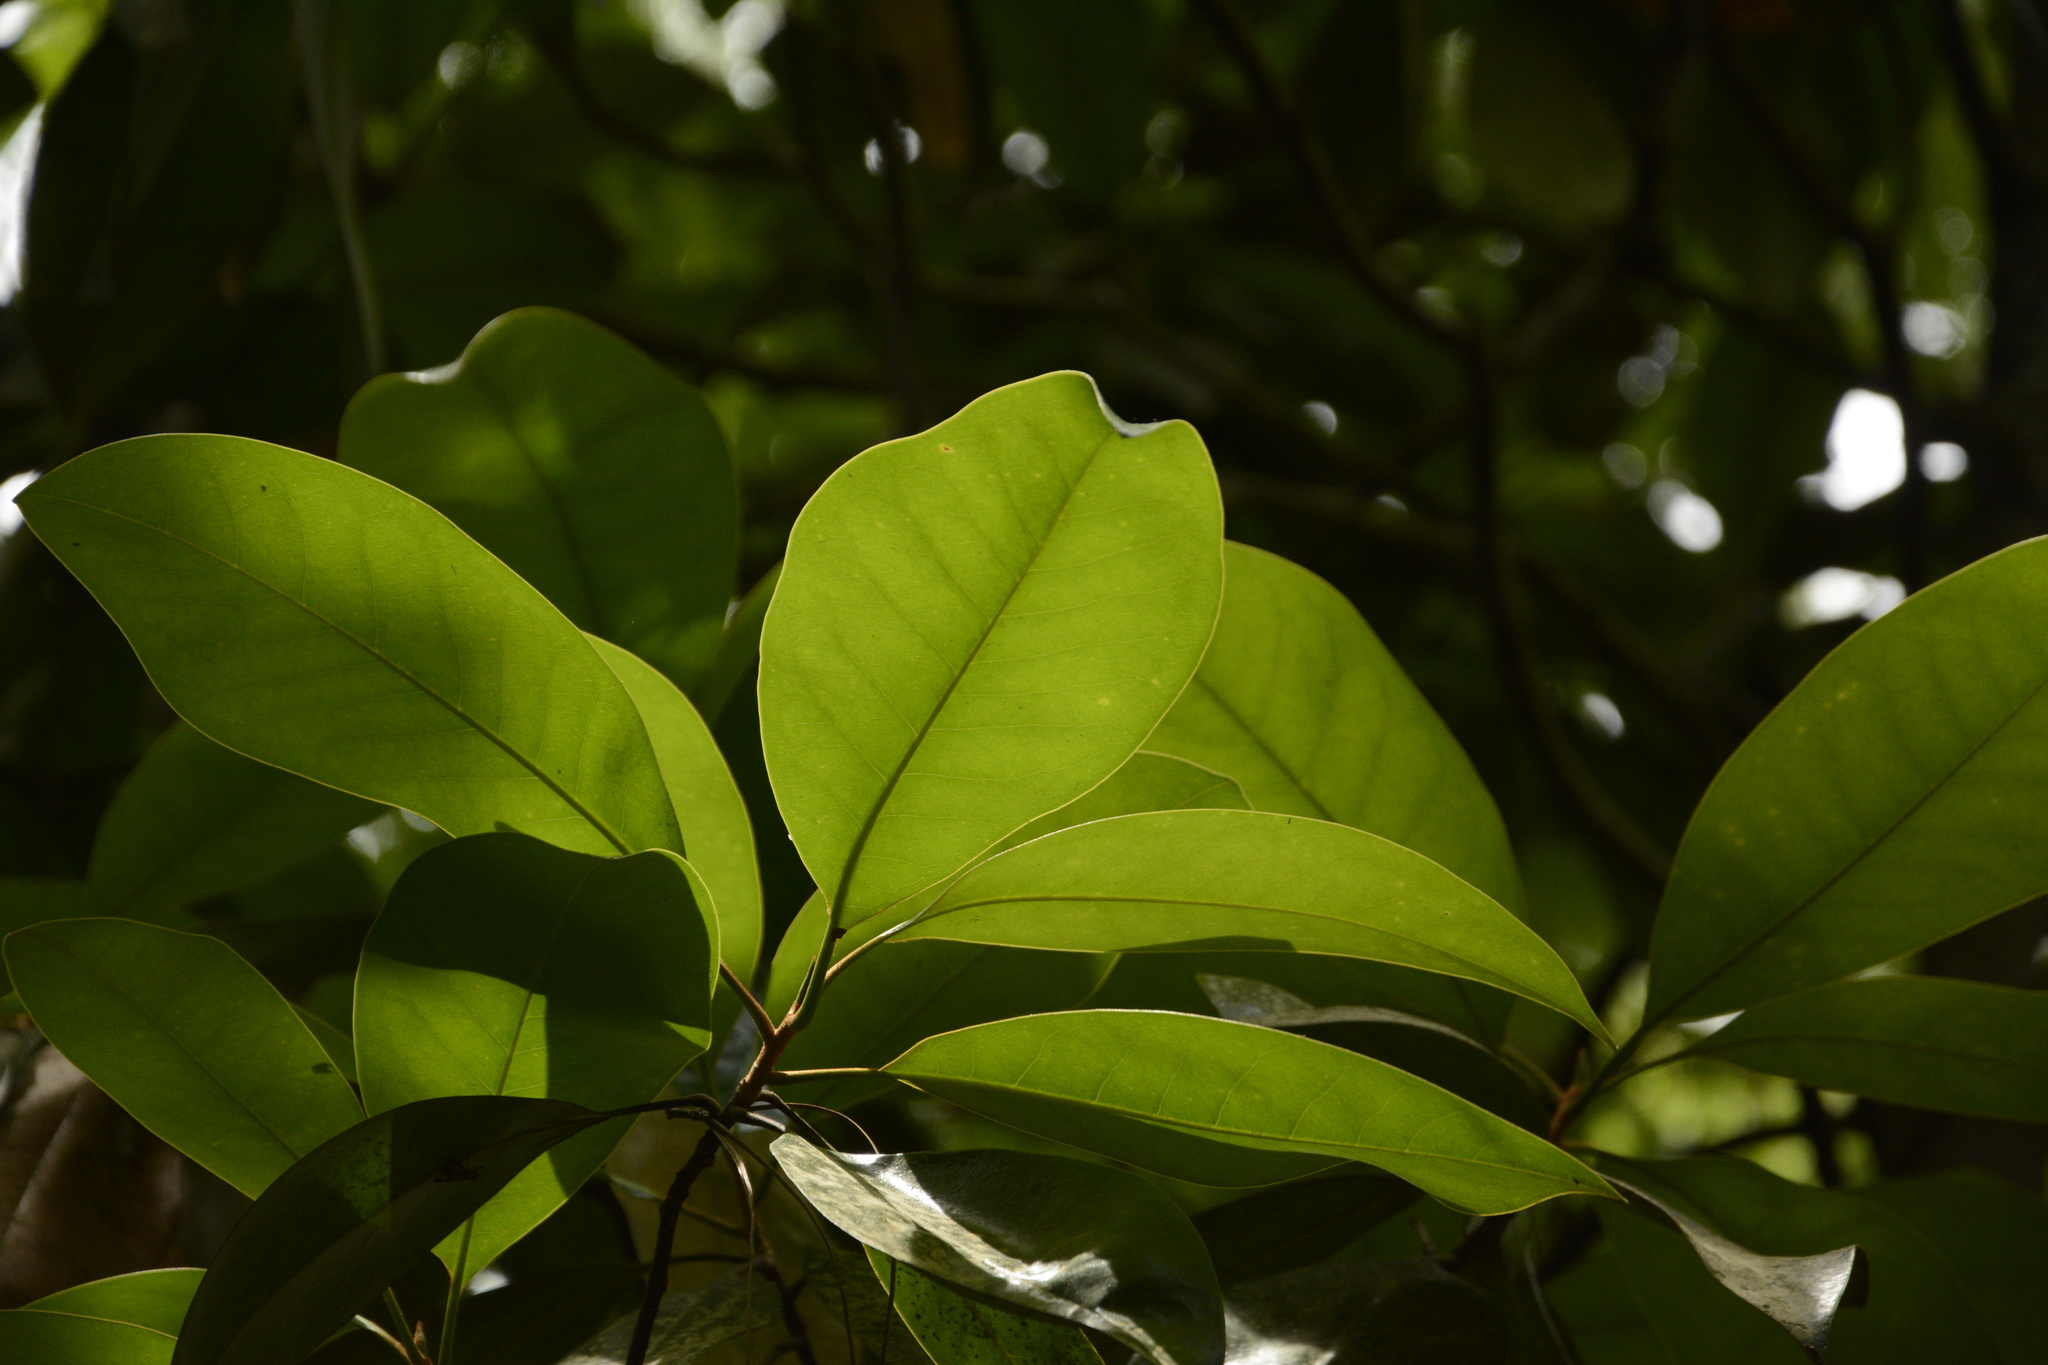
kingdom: Plantae
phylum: Tracheophyta
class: Magnoliopsida
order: Magnoliales
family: Magnoliaceae
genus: Magnolia
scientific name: Magnolia grandiflora
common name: Southern magnolia
